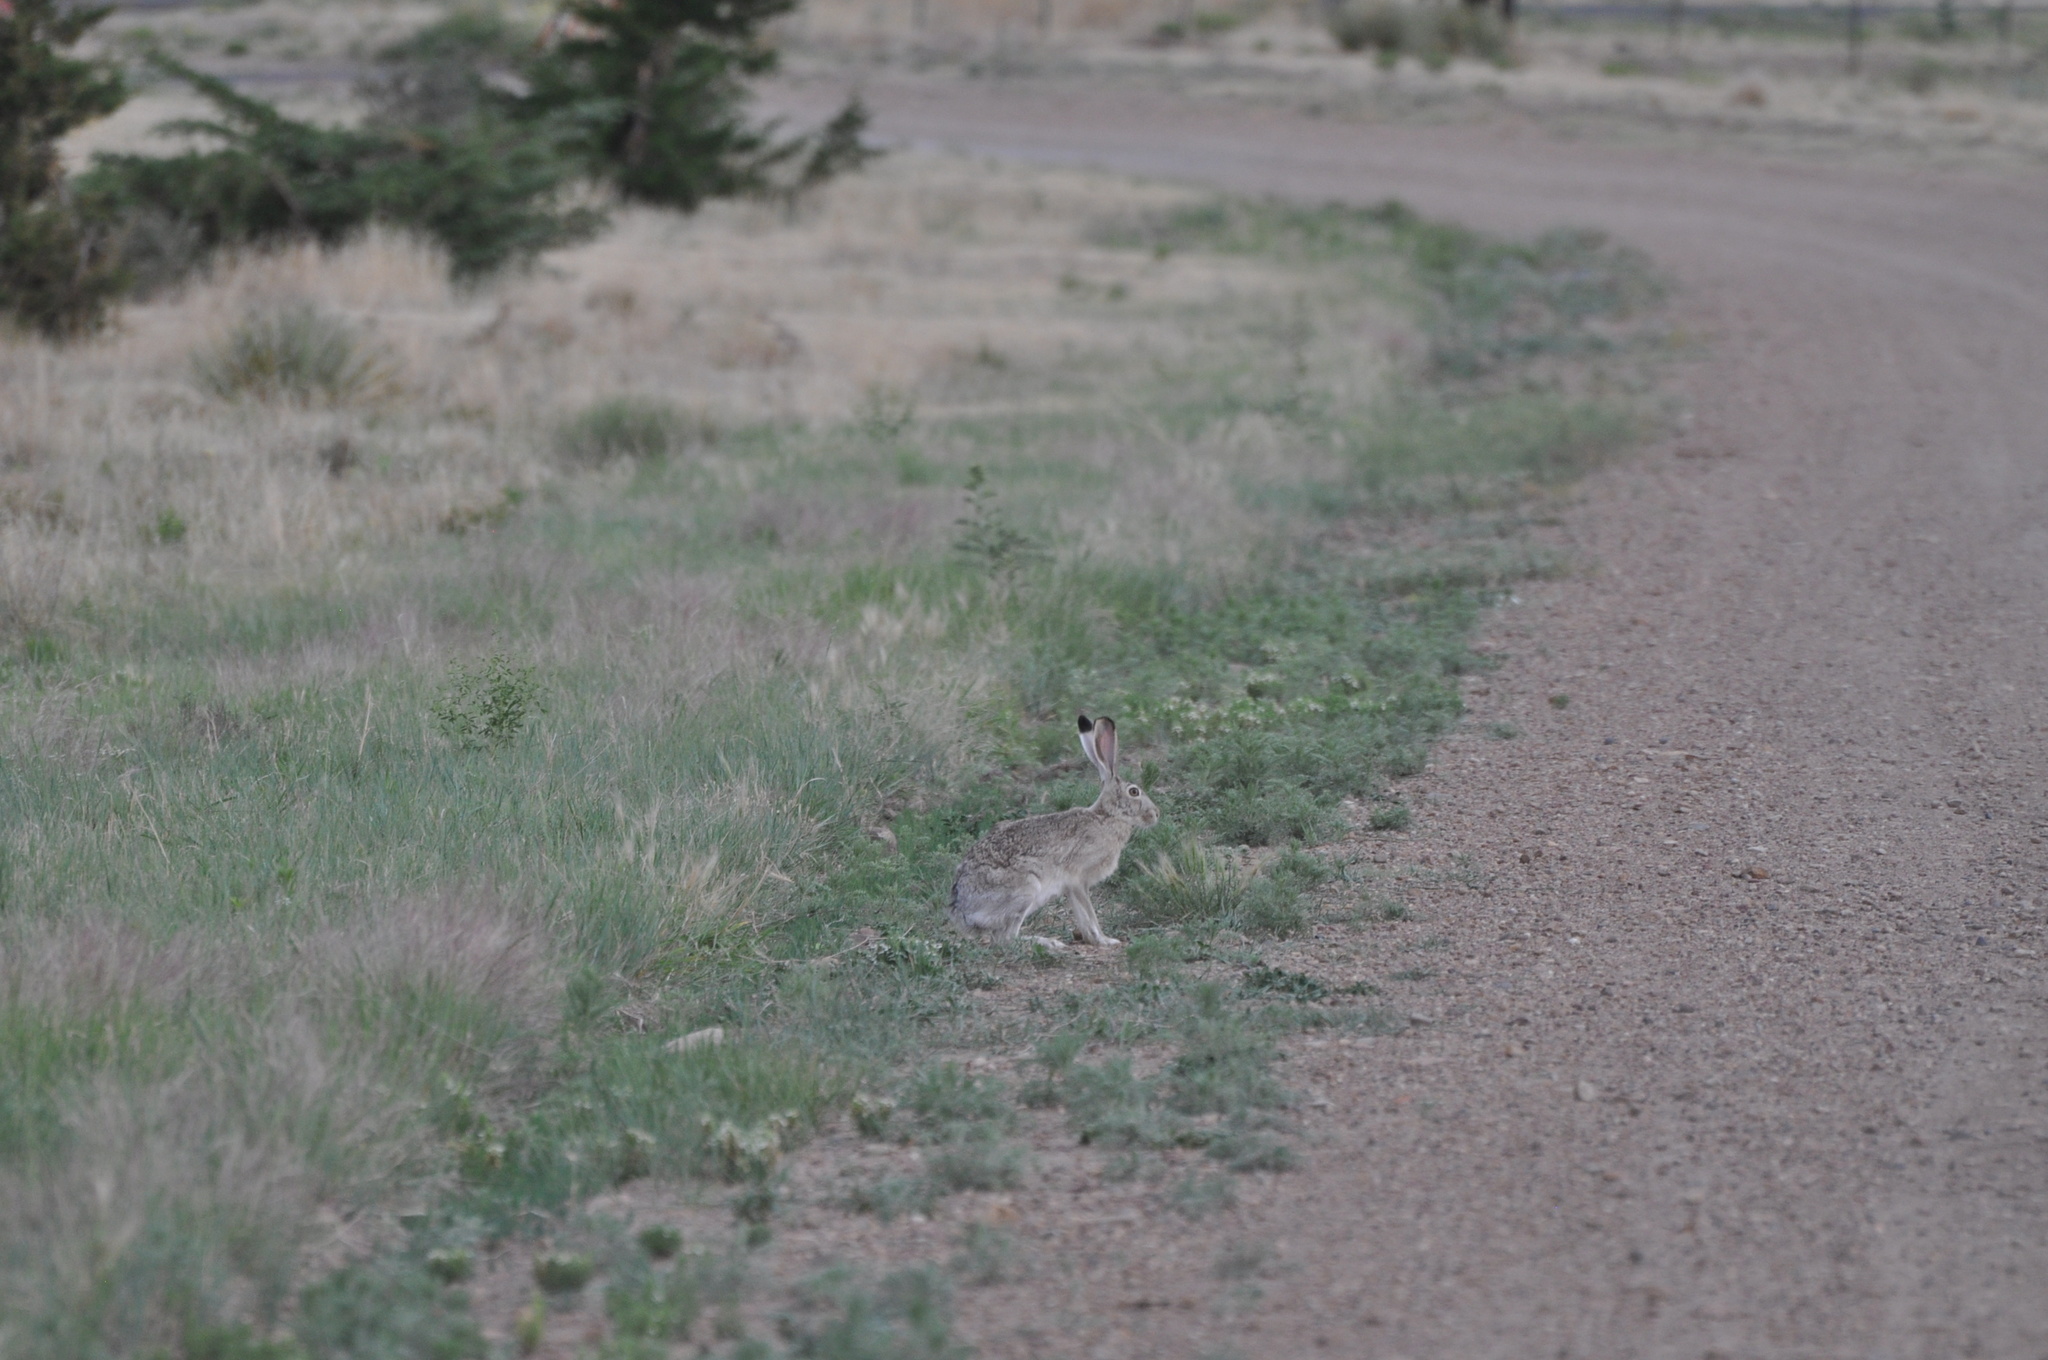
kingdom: Animalia
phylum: Chordata
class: Mammalia
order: Lagomorpha
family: Leporidae
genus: Lepus
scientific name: Lepus californicus
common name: Black-tailed jackrabbit
